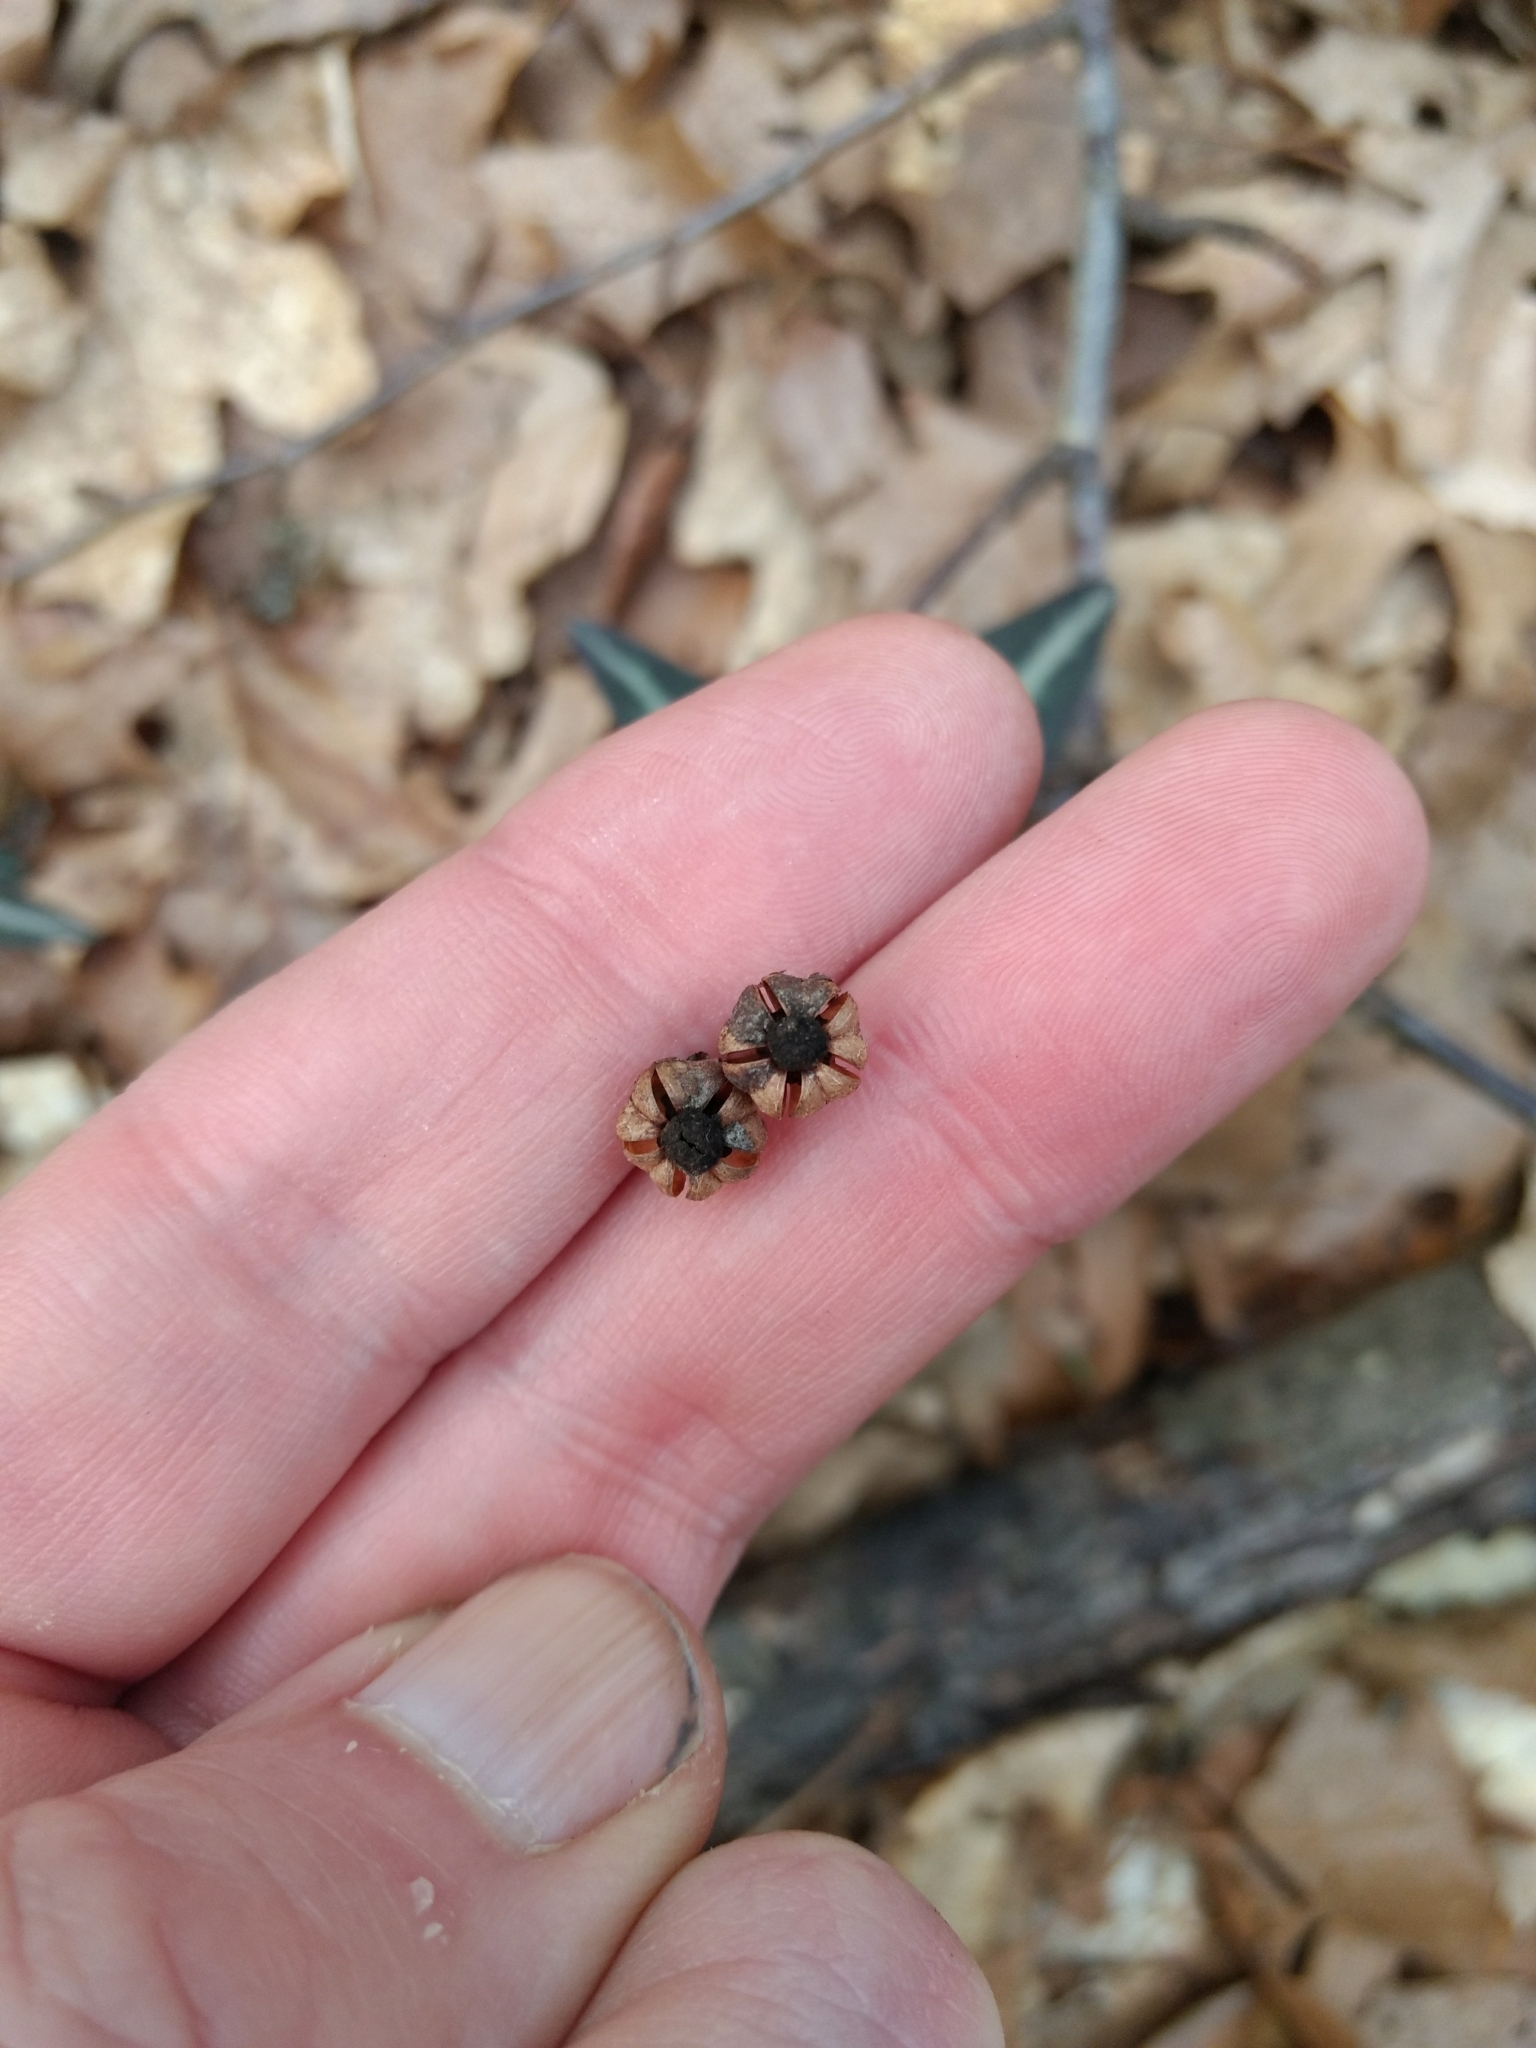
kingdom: Plantae
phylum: Tracheophyta
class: Magnoliopsida
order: Ericales
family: Ericaceae
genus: Chimaphila
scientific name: Chimaphila maculata
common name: Spotted pipsissewa
